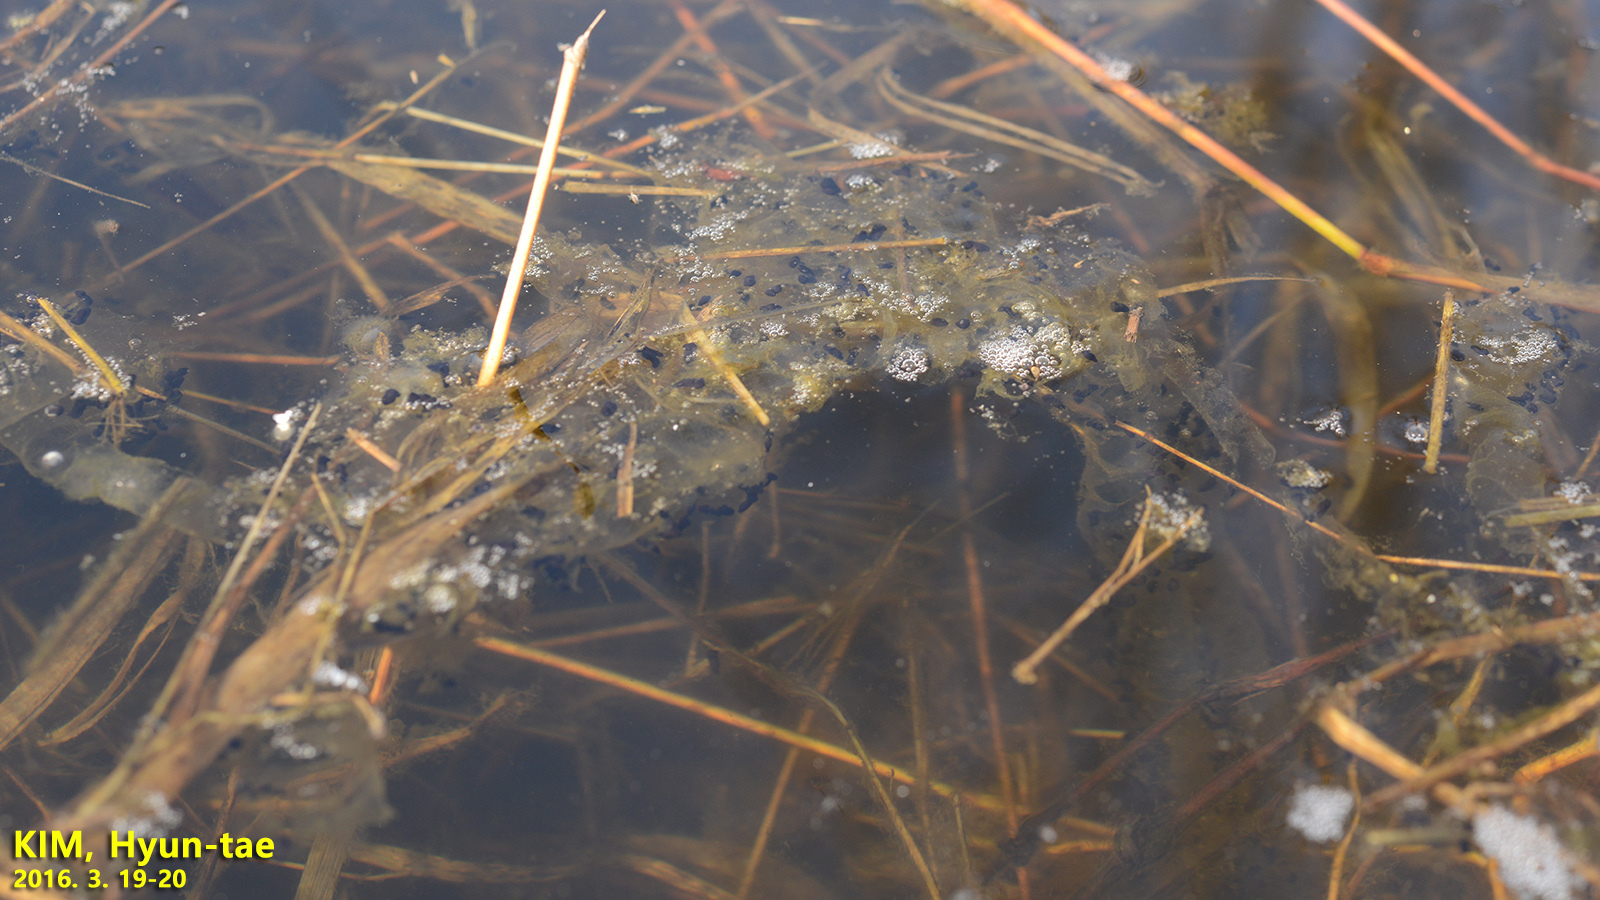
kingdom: Animalia
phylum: Chordata
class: Amphibia
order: Anura
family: Bufonidae
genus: Bufo
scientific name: Bufo gargarizans
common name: Asiatic toad
